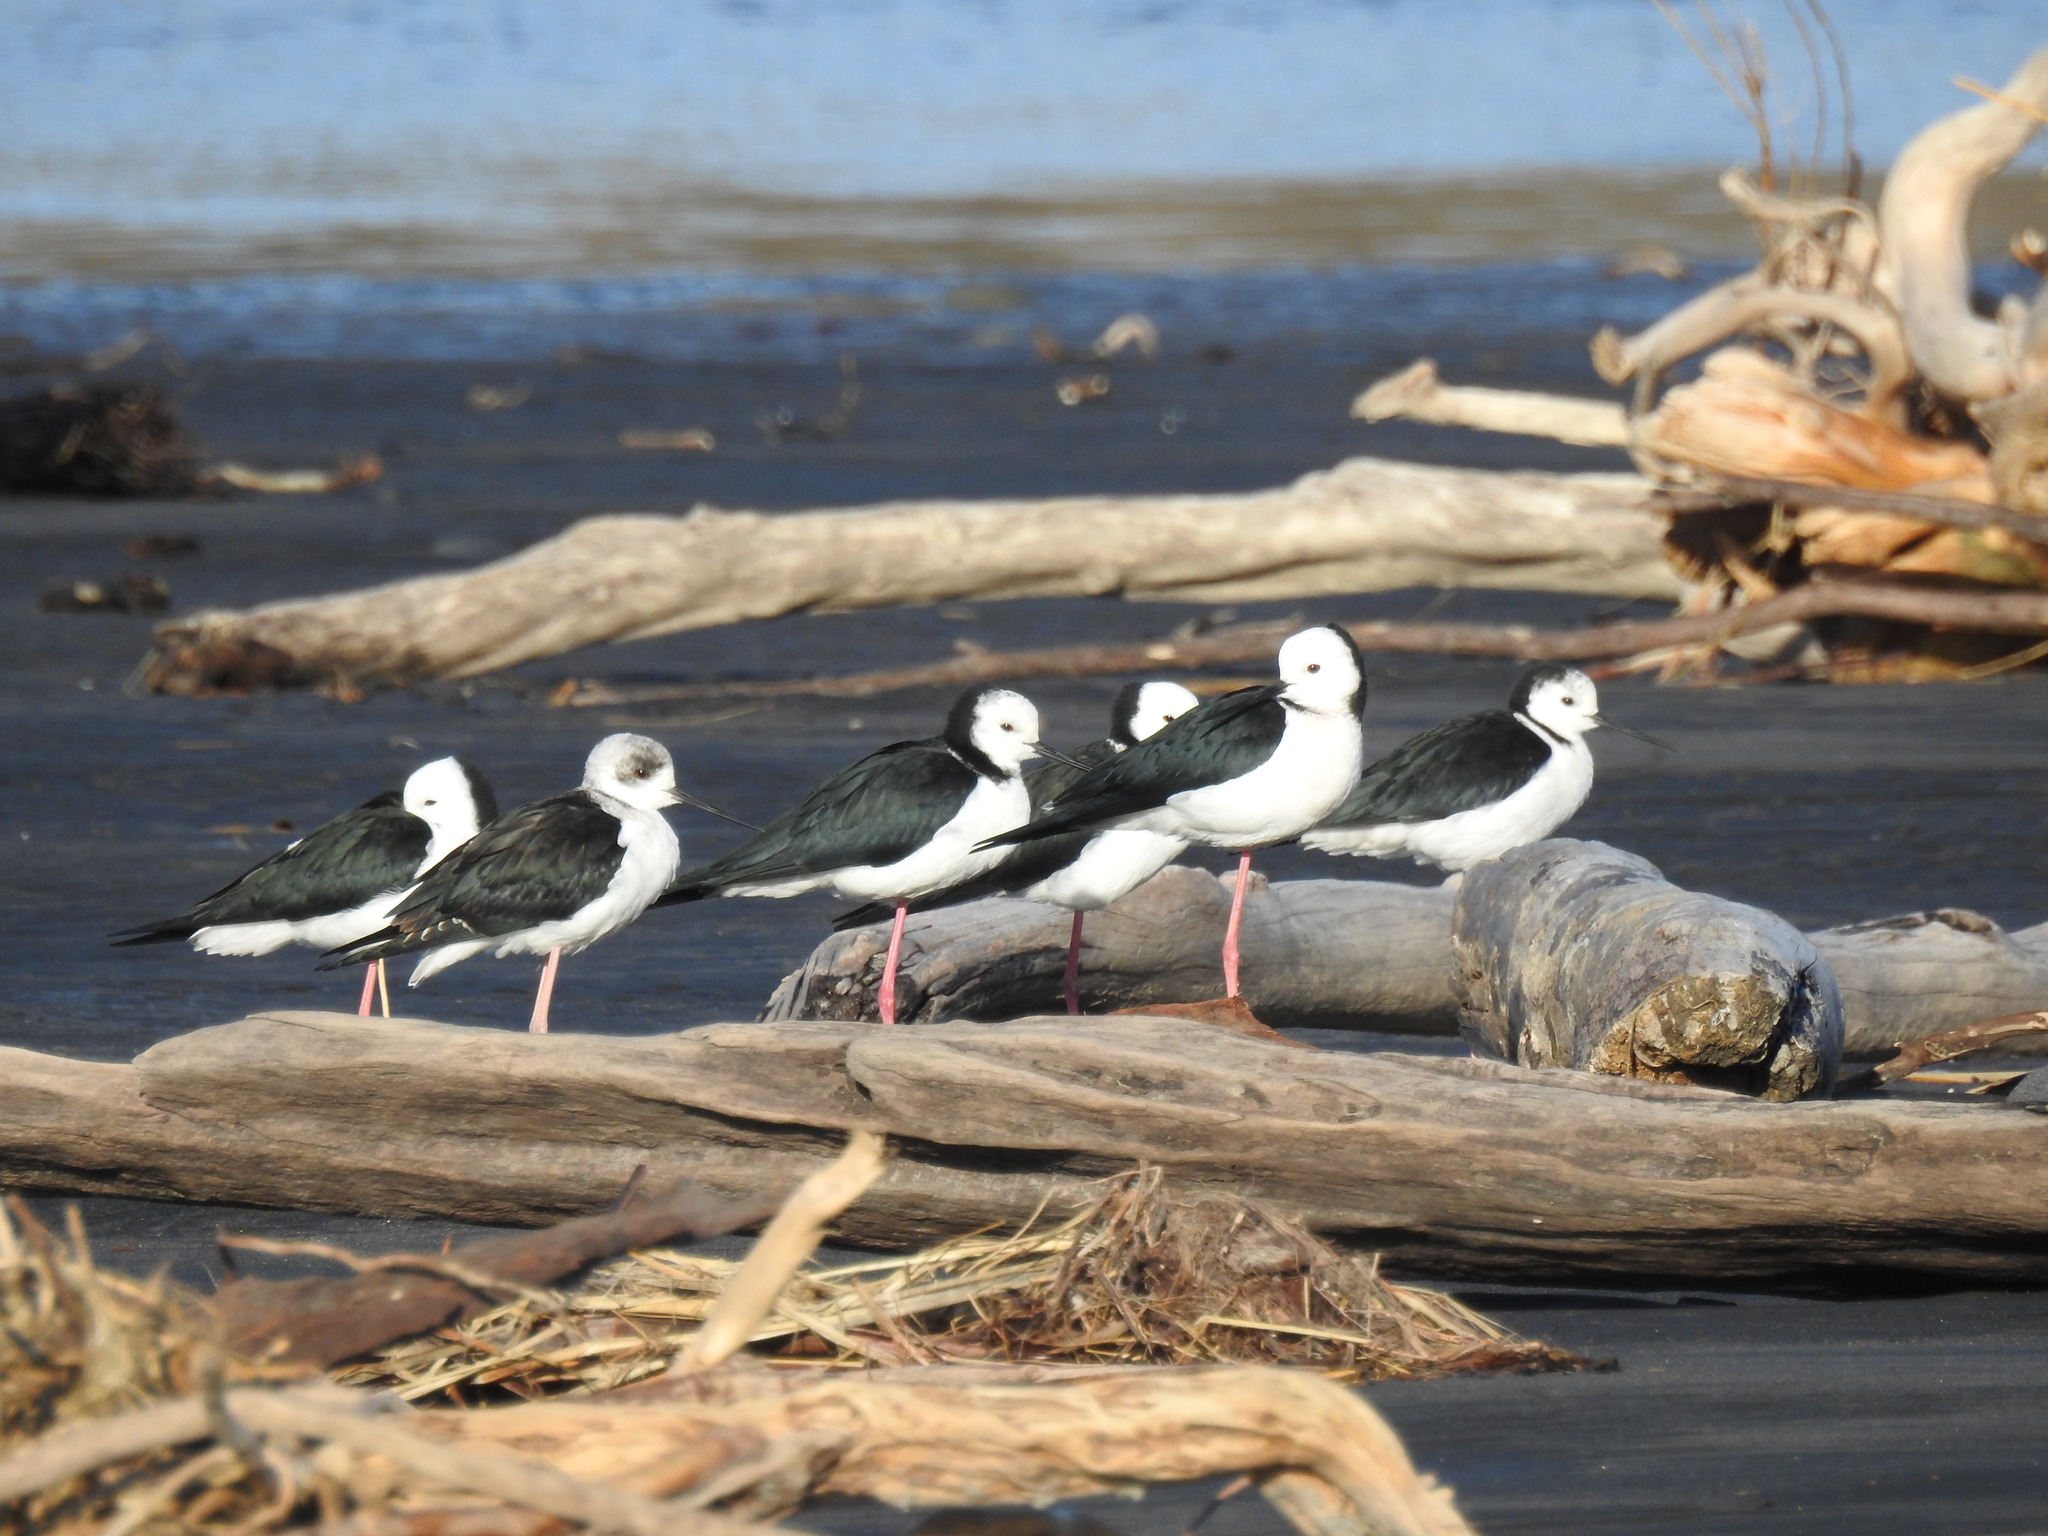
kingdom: Animalia
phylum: Chordata
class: Aves
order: Charadriiformes
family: Recurvirostridae
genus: Himantopus
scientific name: Himantopus leucocephalus
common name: White-headed stilt
